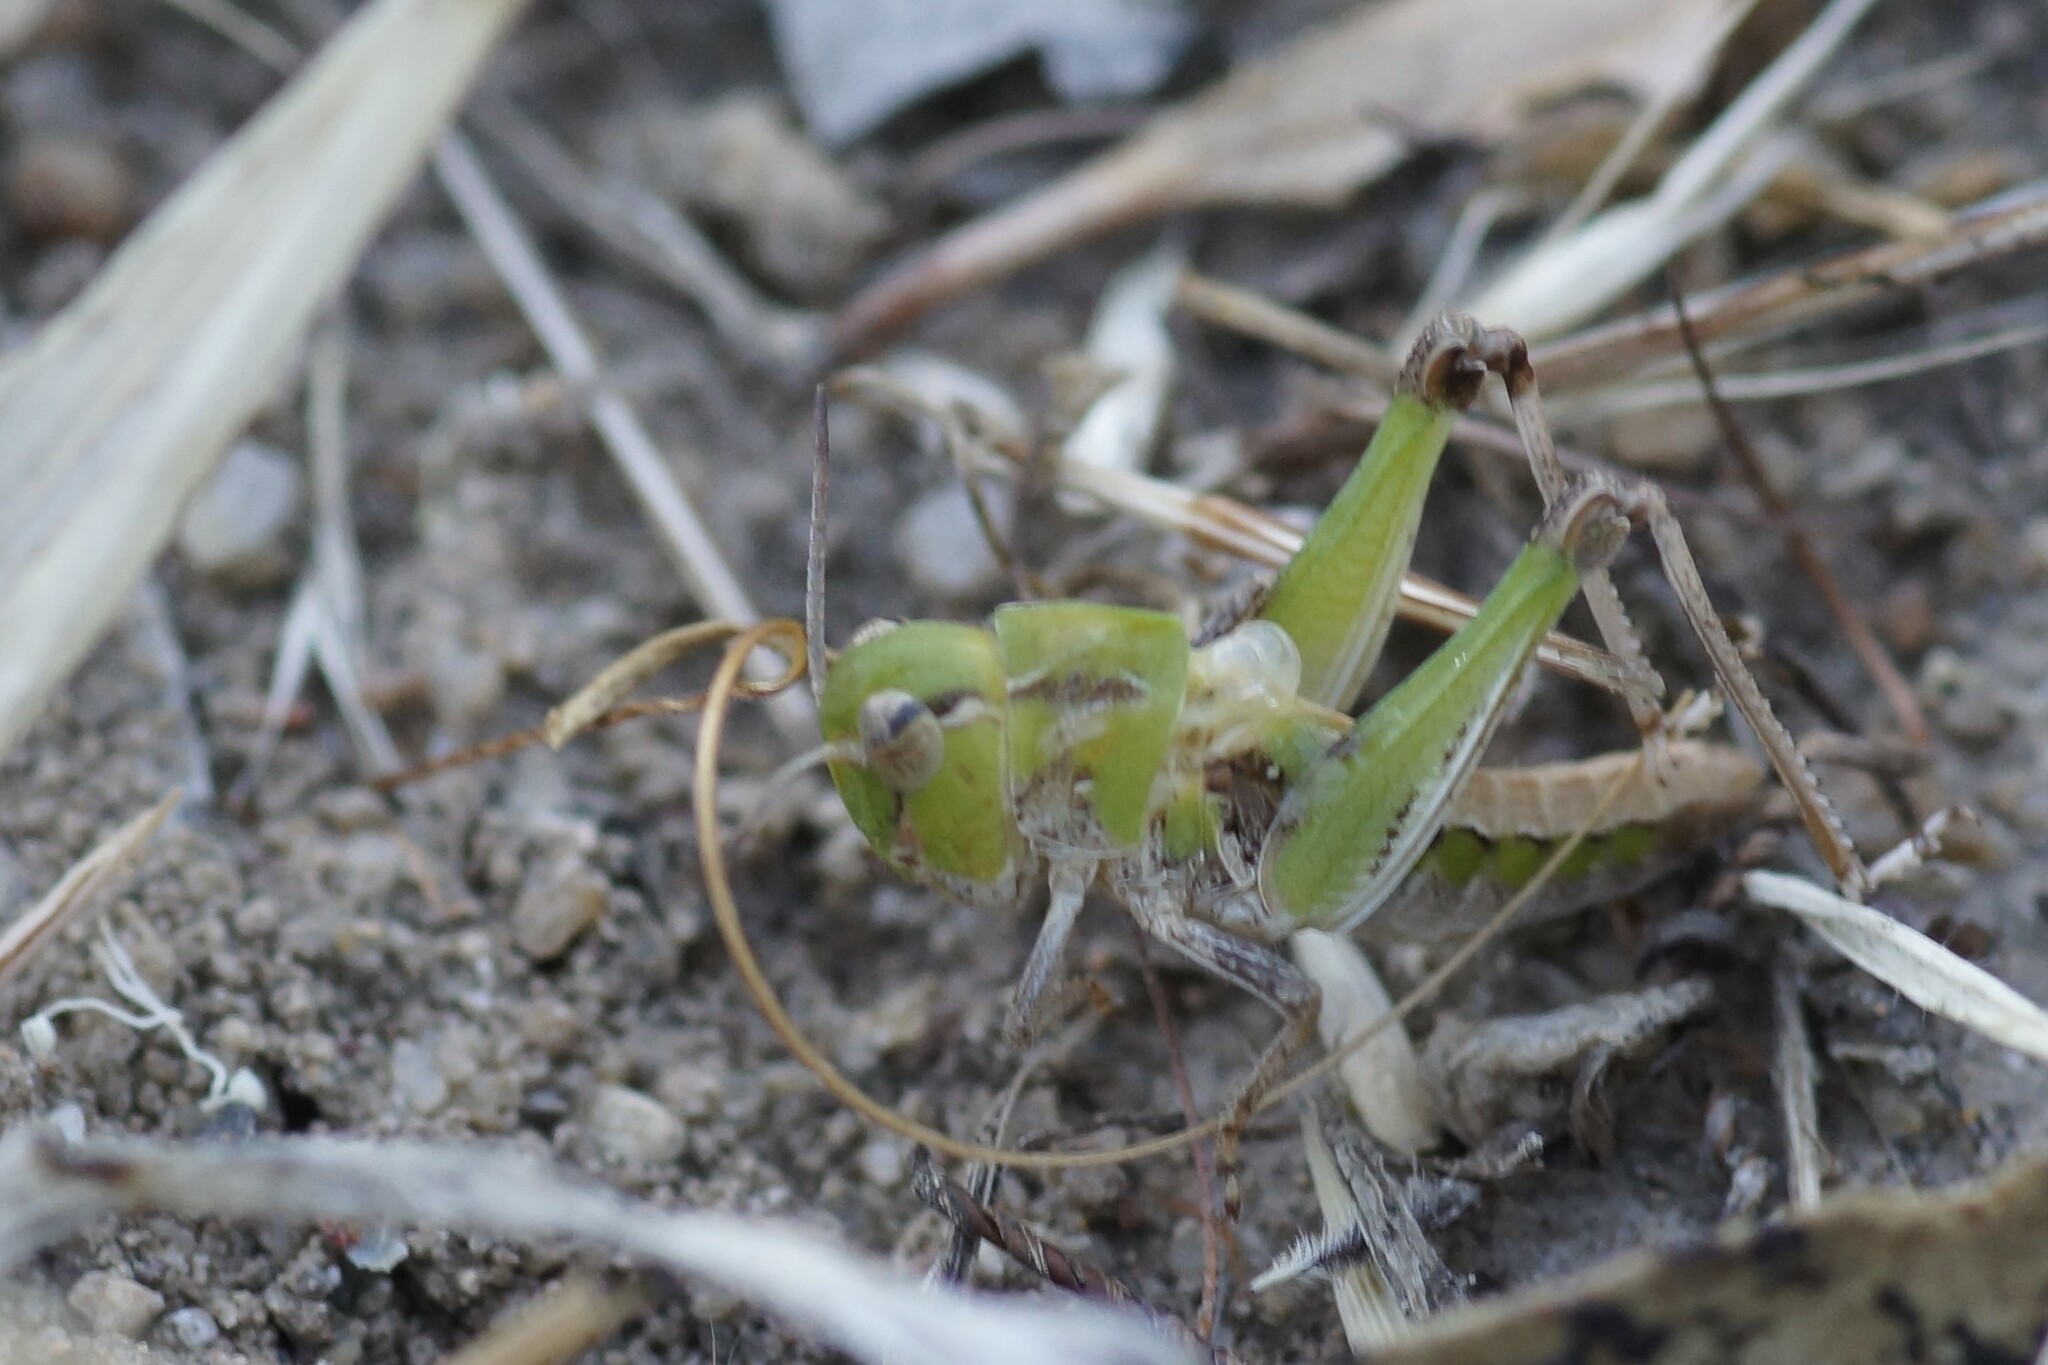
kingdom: Animalia
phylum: Arthropoda
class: Insecta
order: Orthoptera
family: Acrididae
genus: Gastrimargus
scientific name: Gastrimargus musicus
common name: Yellow-winged locust
